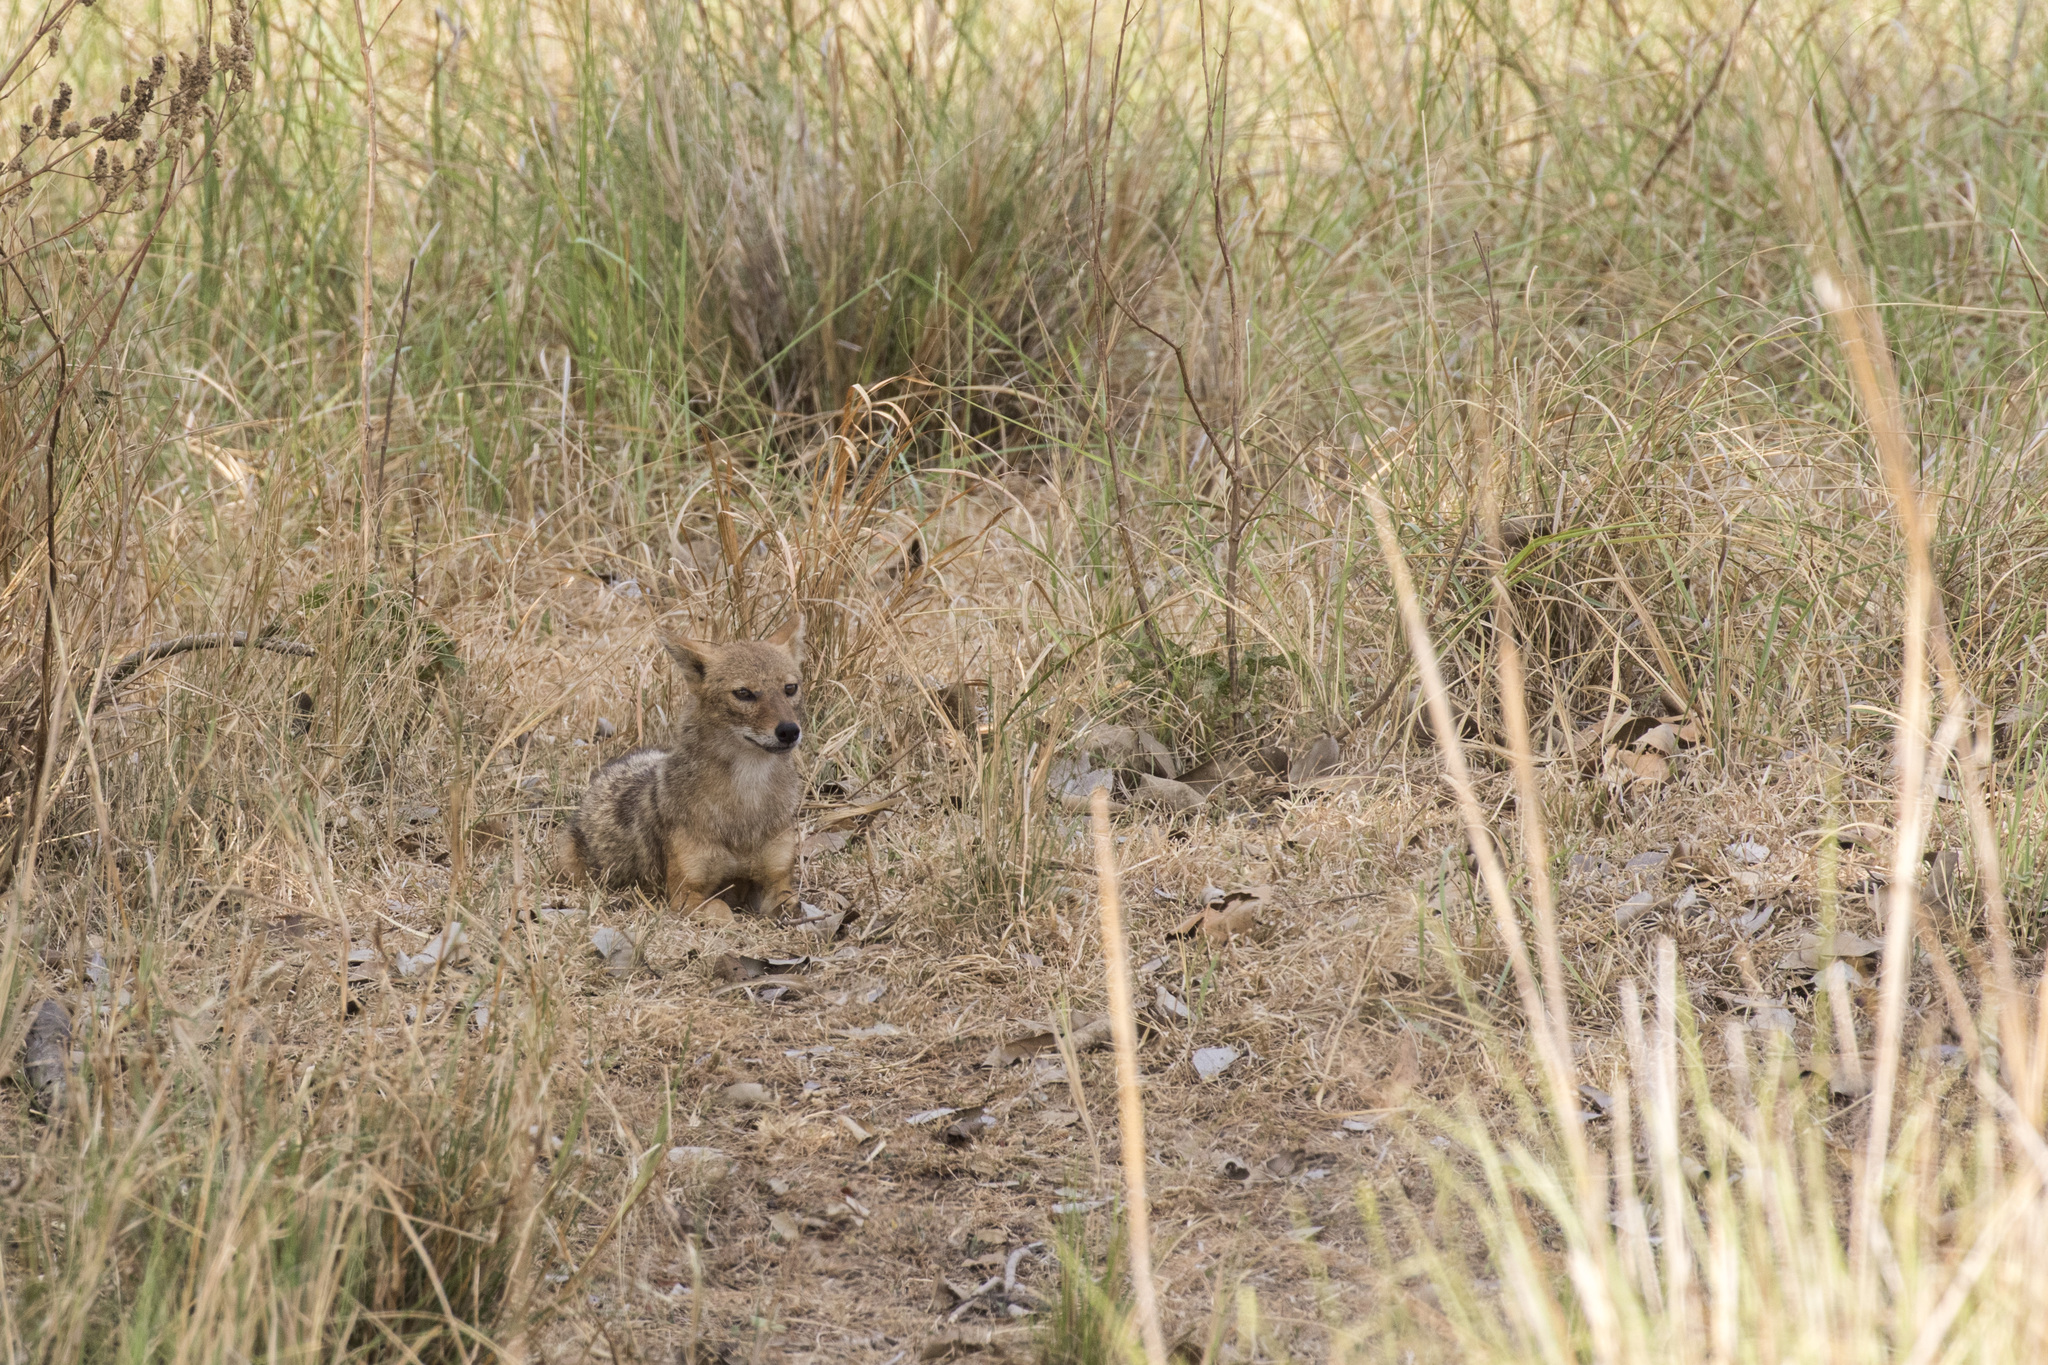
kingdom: Animalia
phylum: Chordata
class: Mammalia
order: Carnivora
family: Canidae
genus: Canis
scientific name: Canis aureus
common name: Golden jackal
